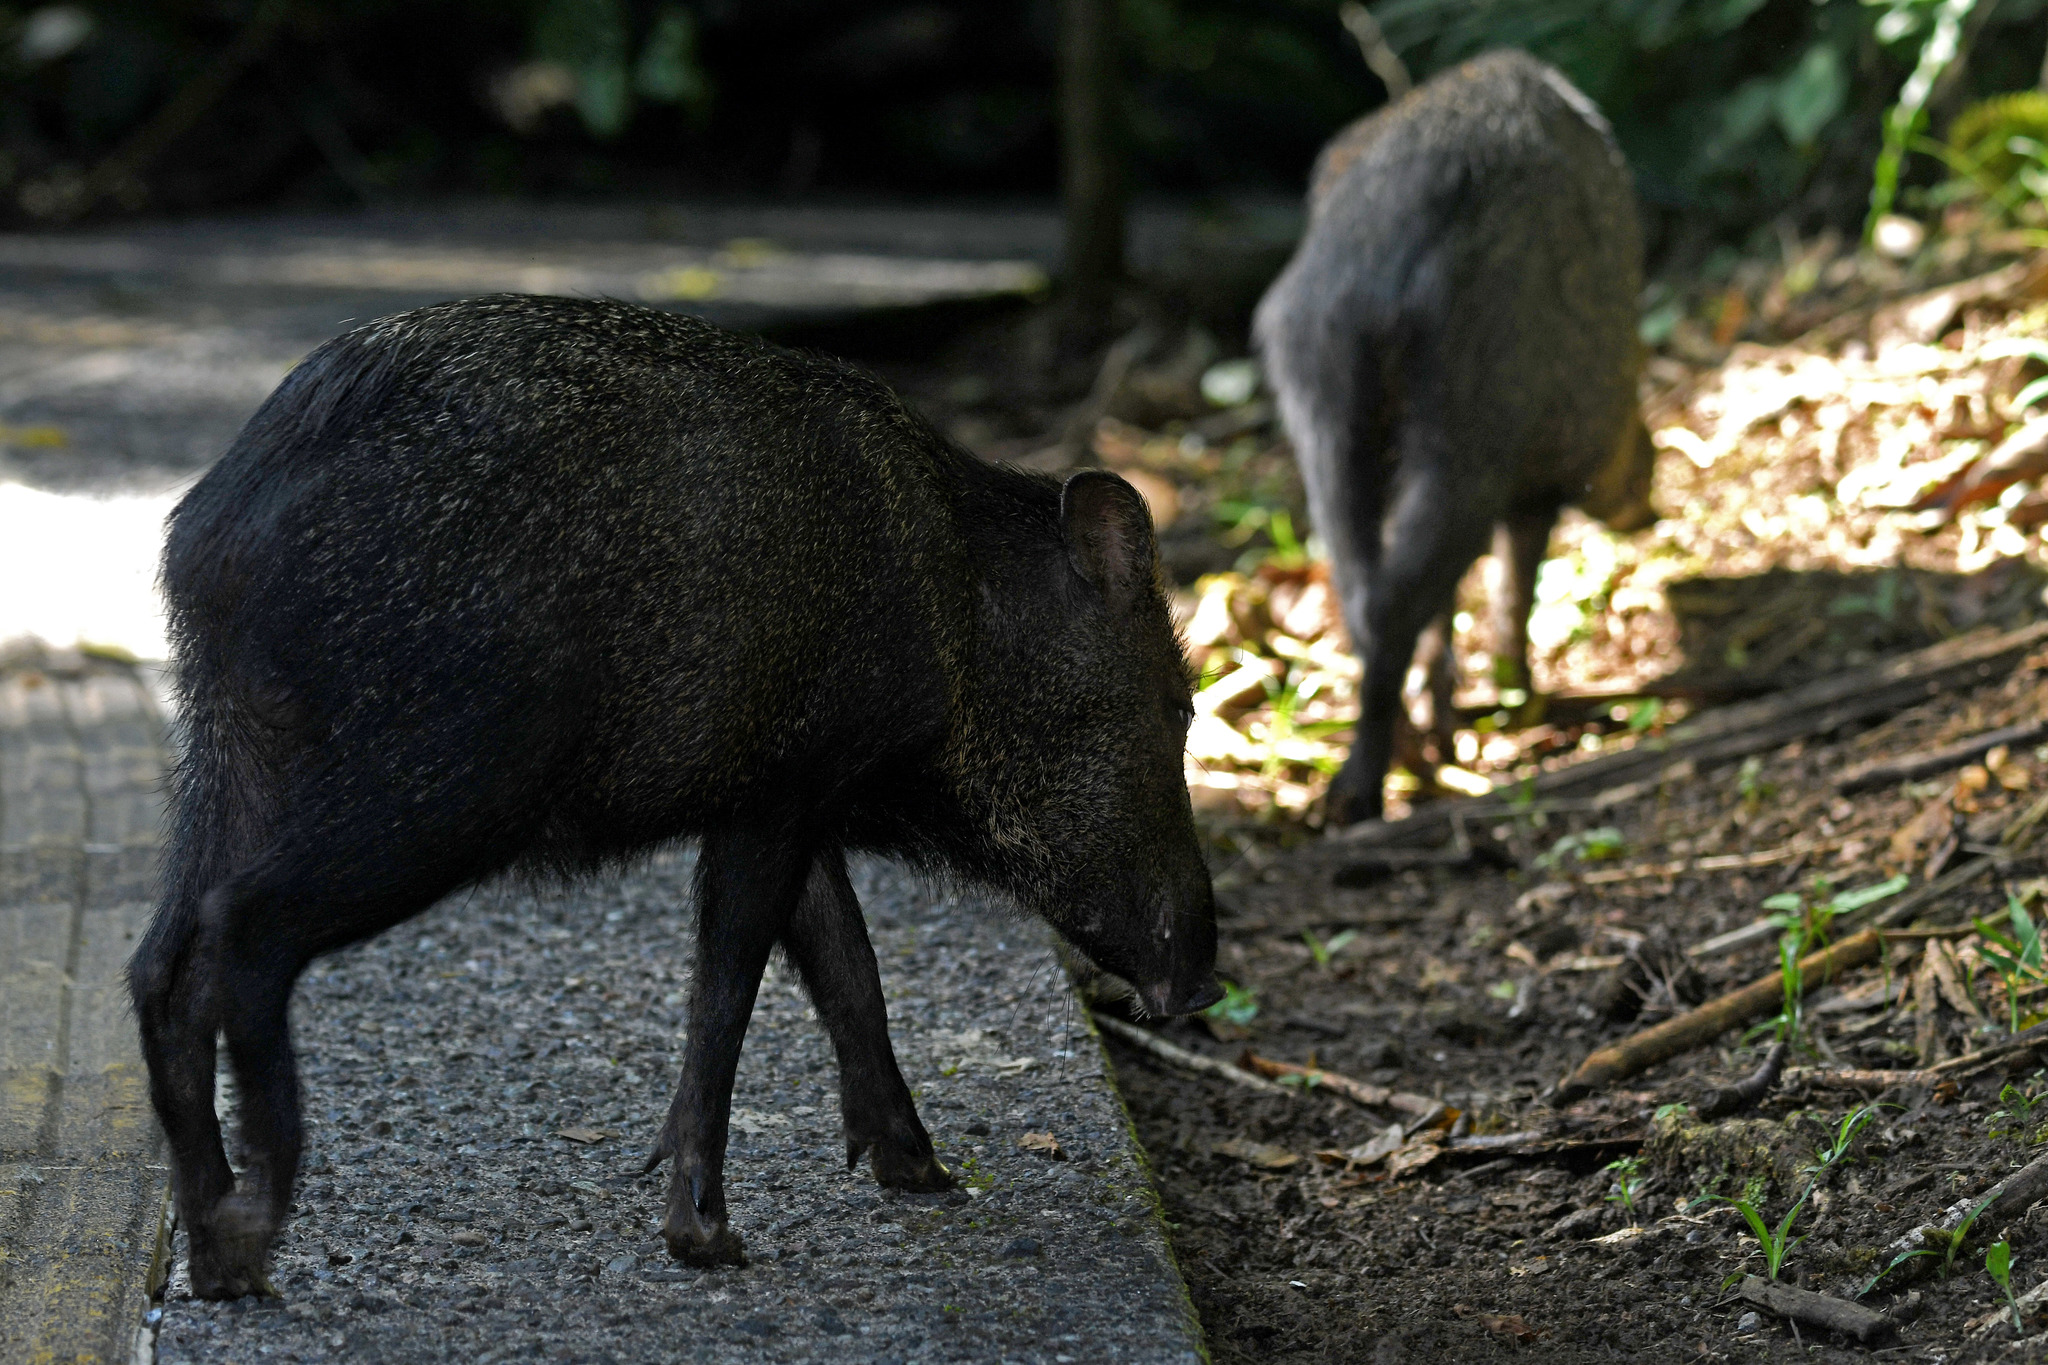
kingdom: Animalia
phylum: Chordata
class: Mammalia
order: Artiodactyla
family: Tayassuidae
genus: Pecari
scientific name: Pecari tajacu
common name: Collared peccary
